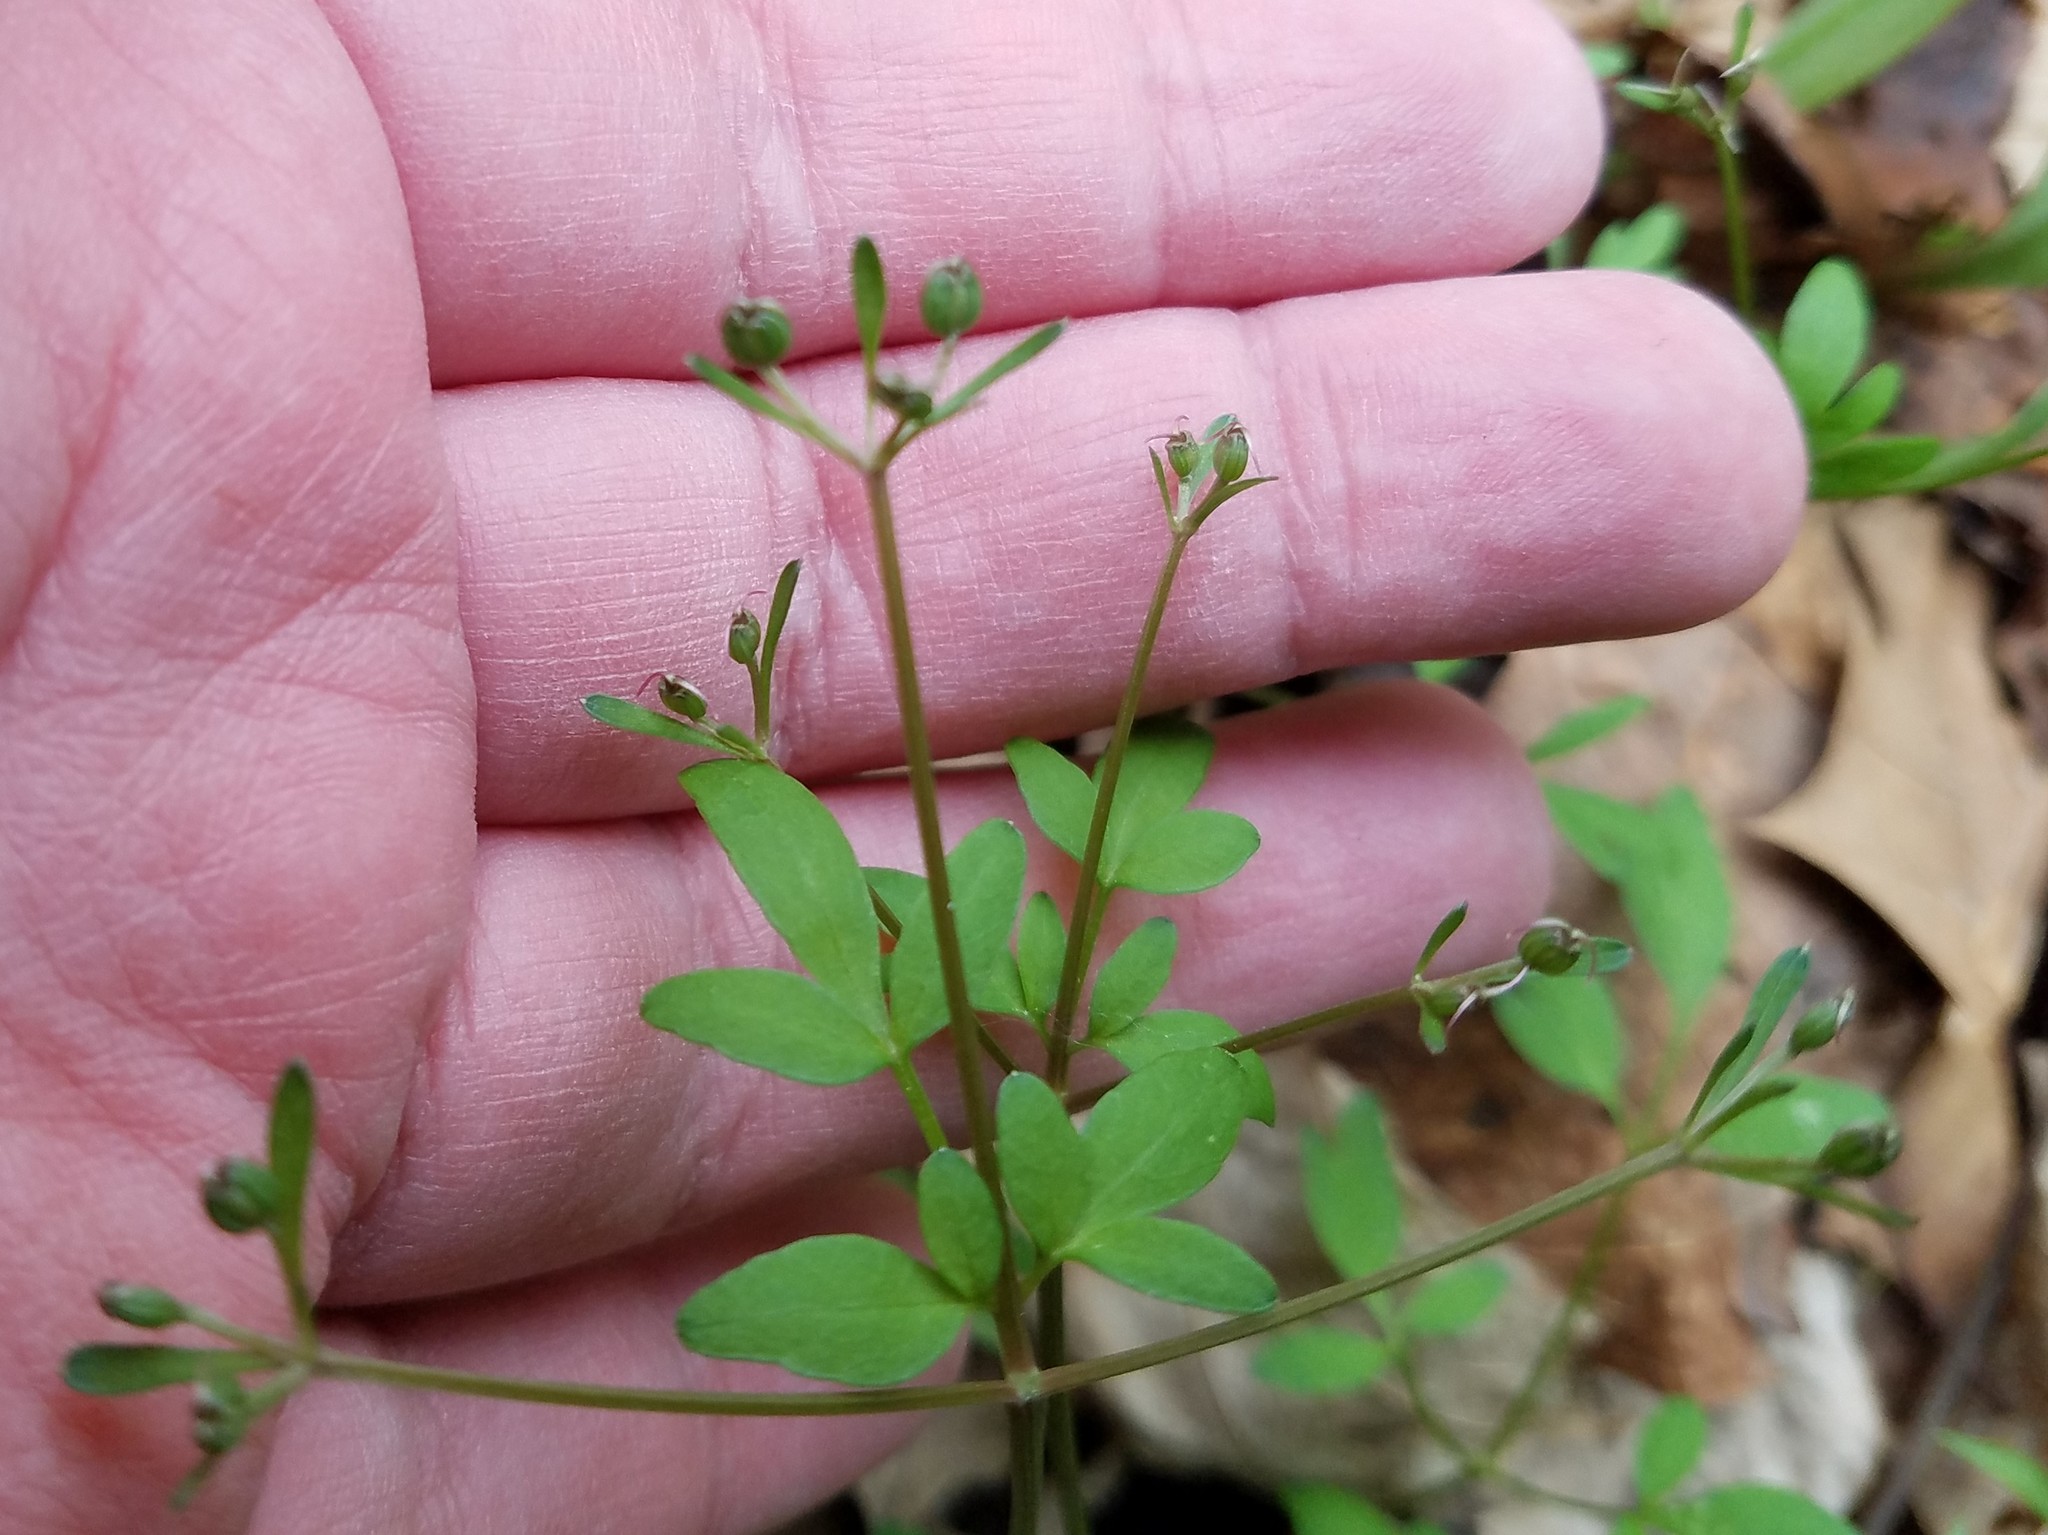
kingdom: Plantae
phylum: Tracheophyta
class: Magnoliopsida
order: Apiales
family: Apiaceae
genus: Erigenia
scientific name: Erigenia bulbosa
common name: Pepper-and-salt
